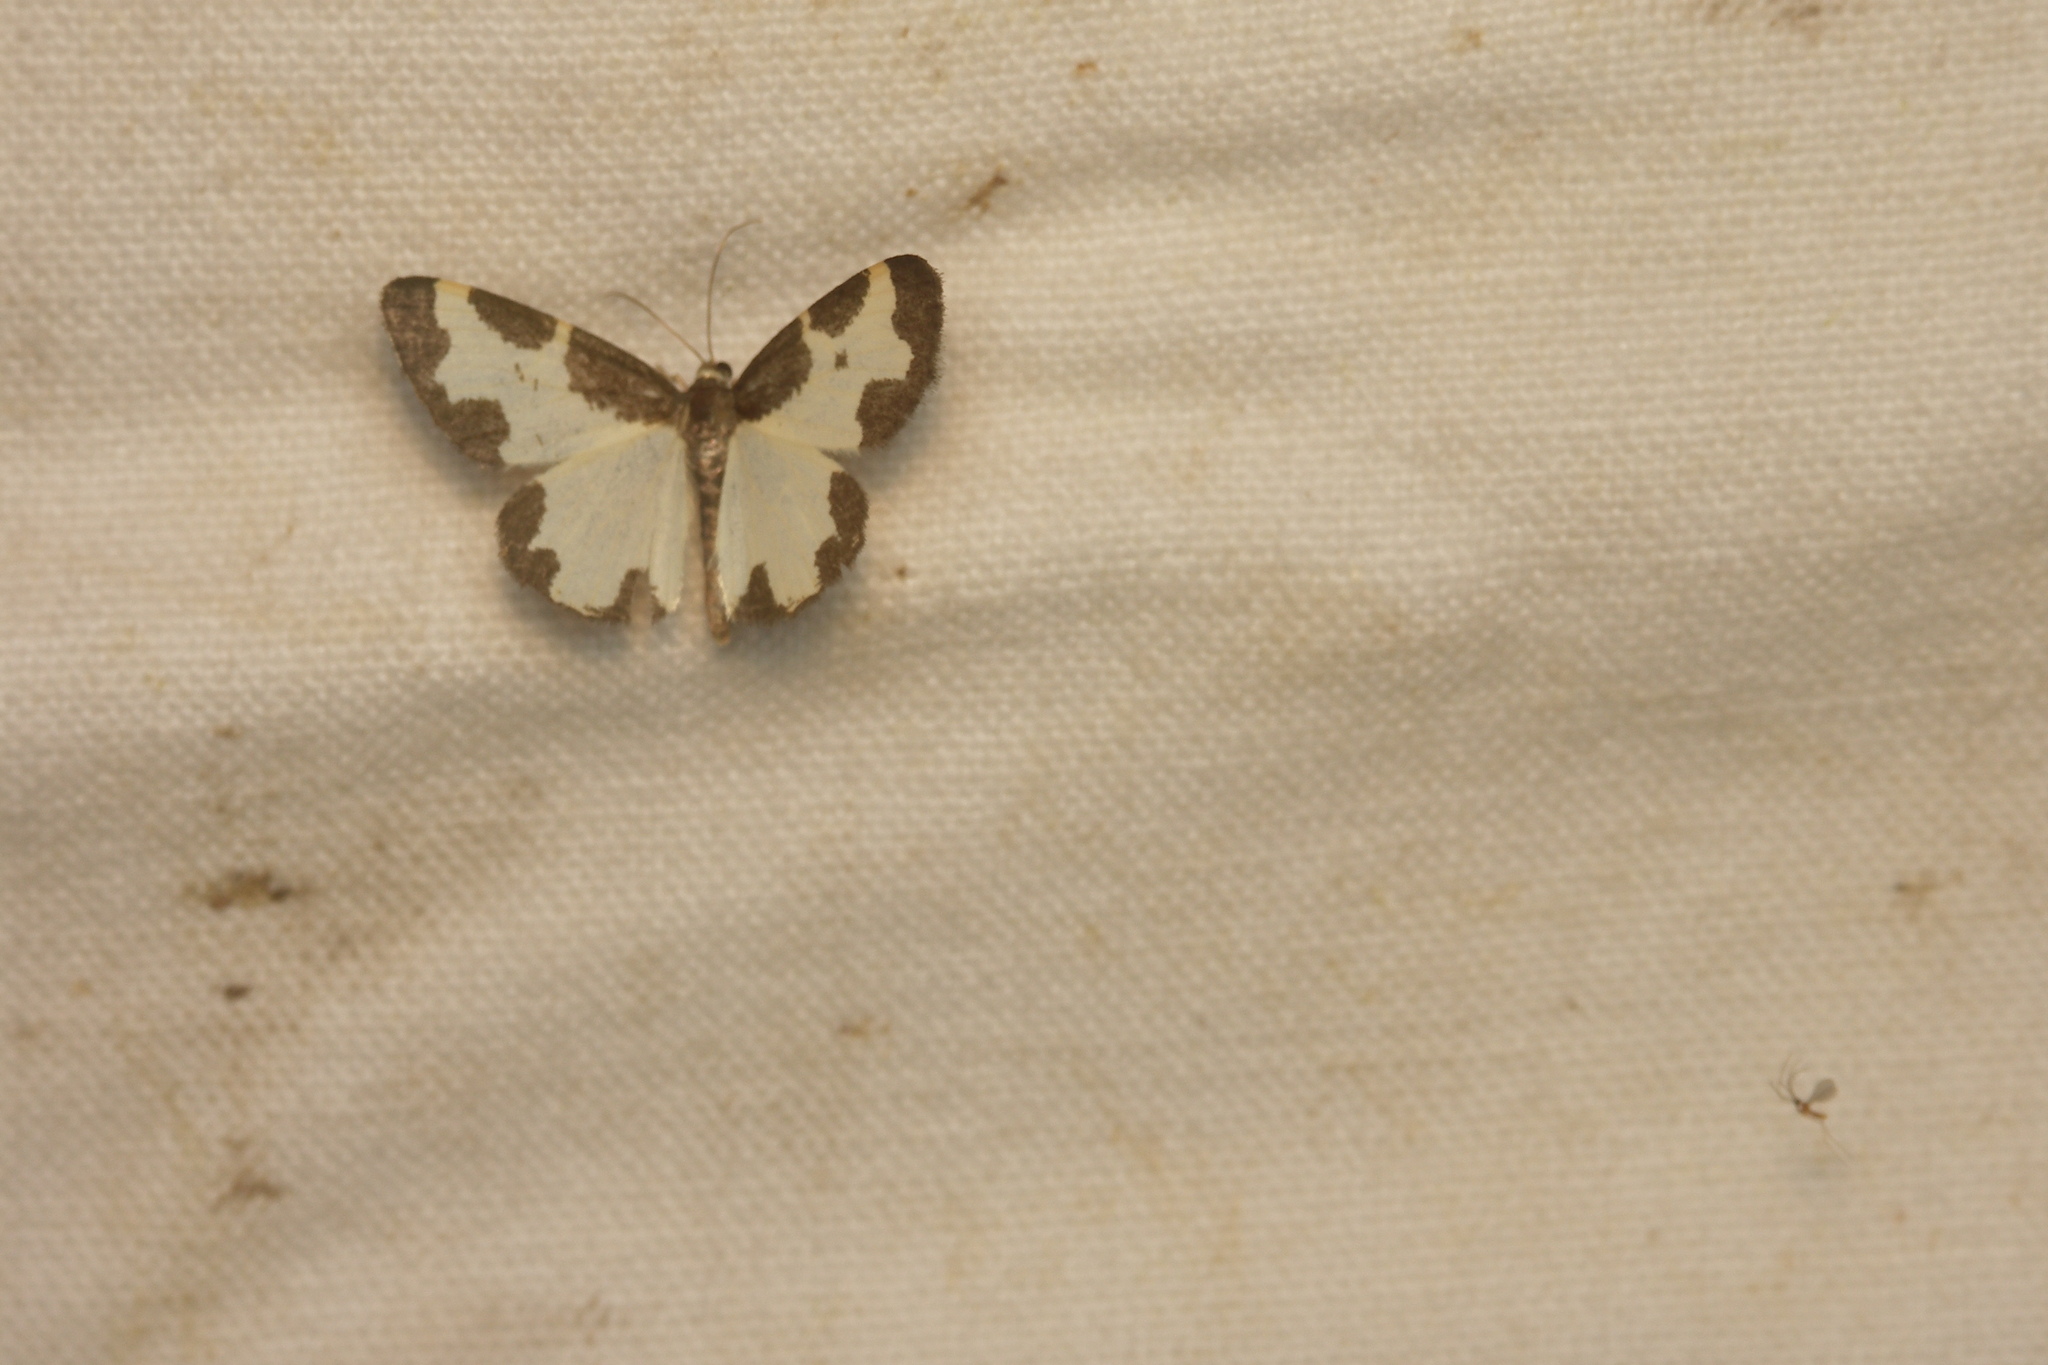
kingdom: Animalia
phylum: Arthropoda
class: Insecta
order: Lepidoptera
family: Geometridae
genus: Lomaspilis
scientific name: Lomaspilis marginata
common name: Clouded border
